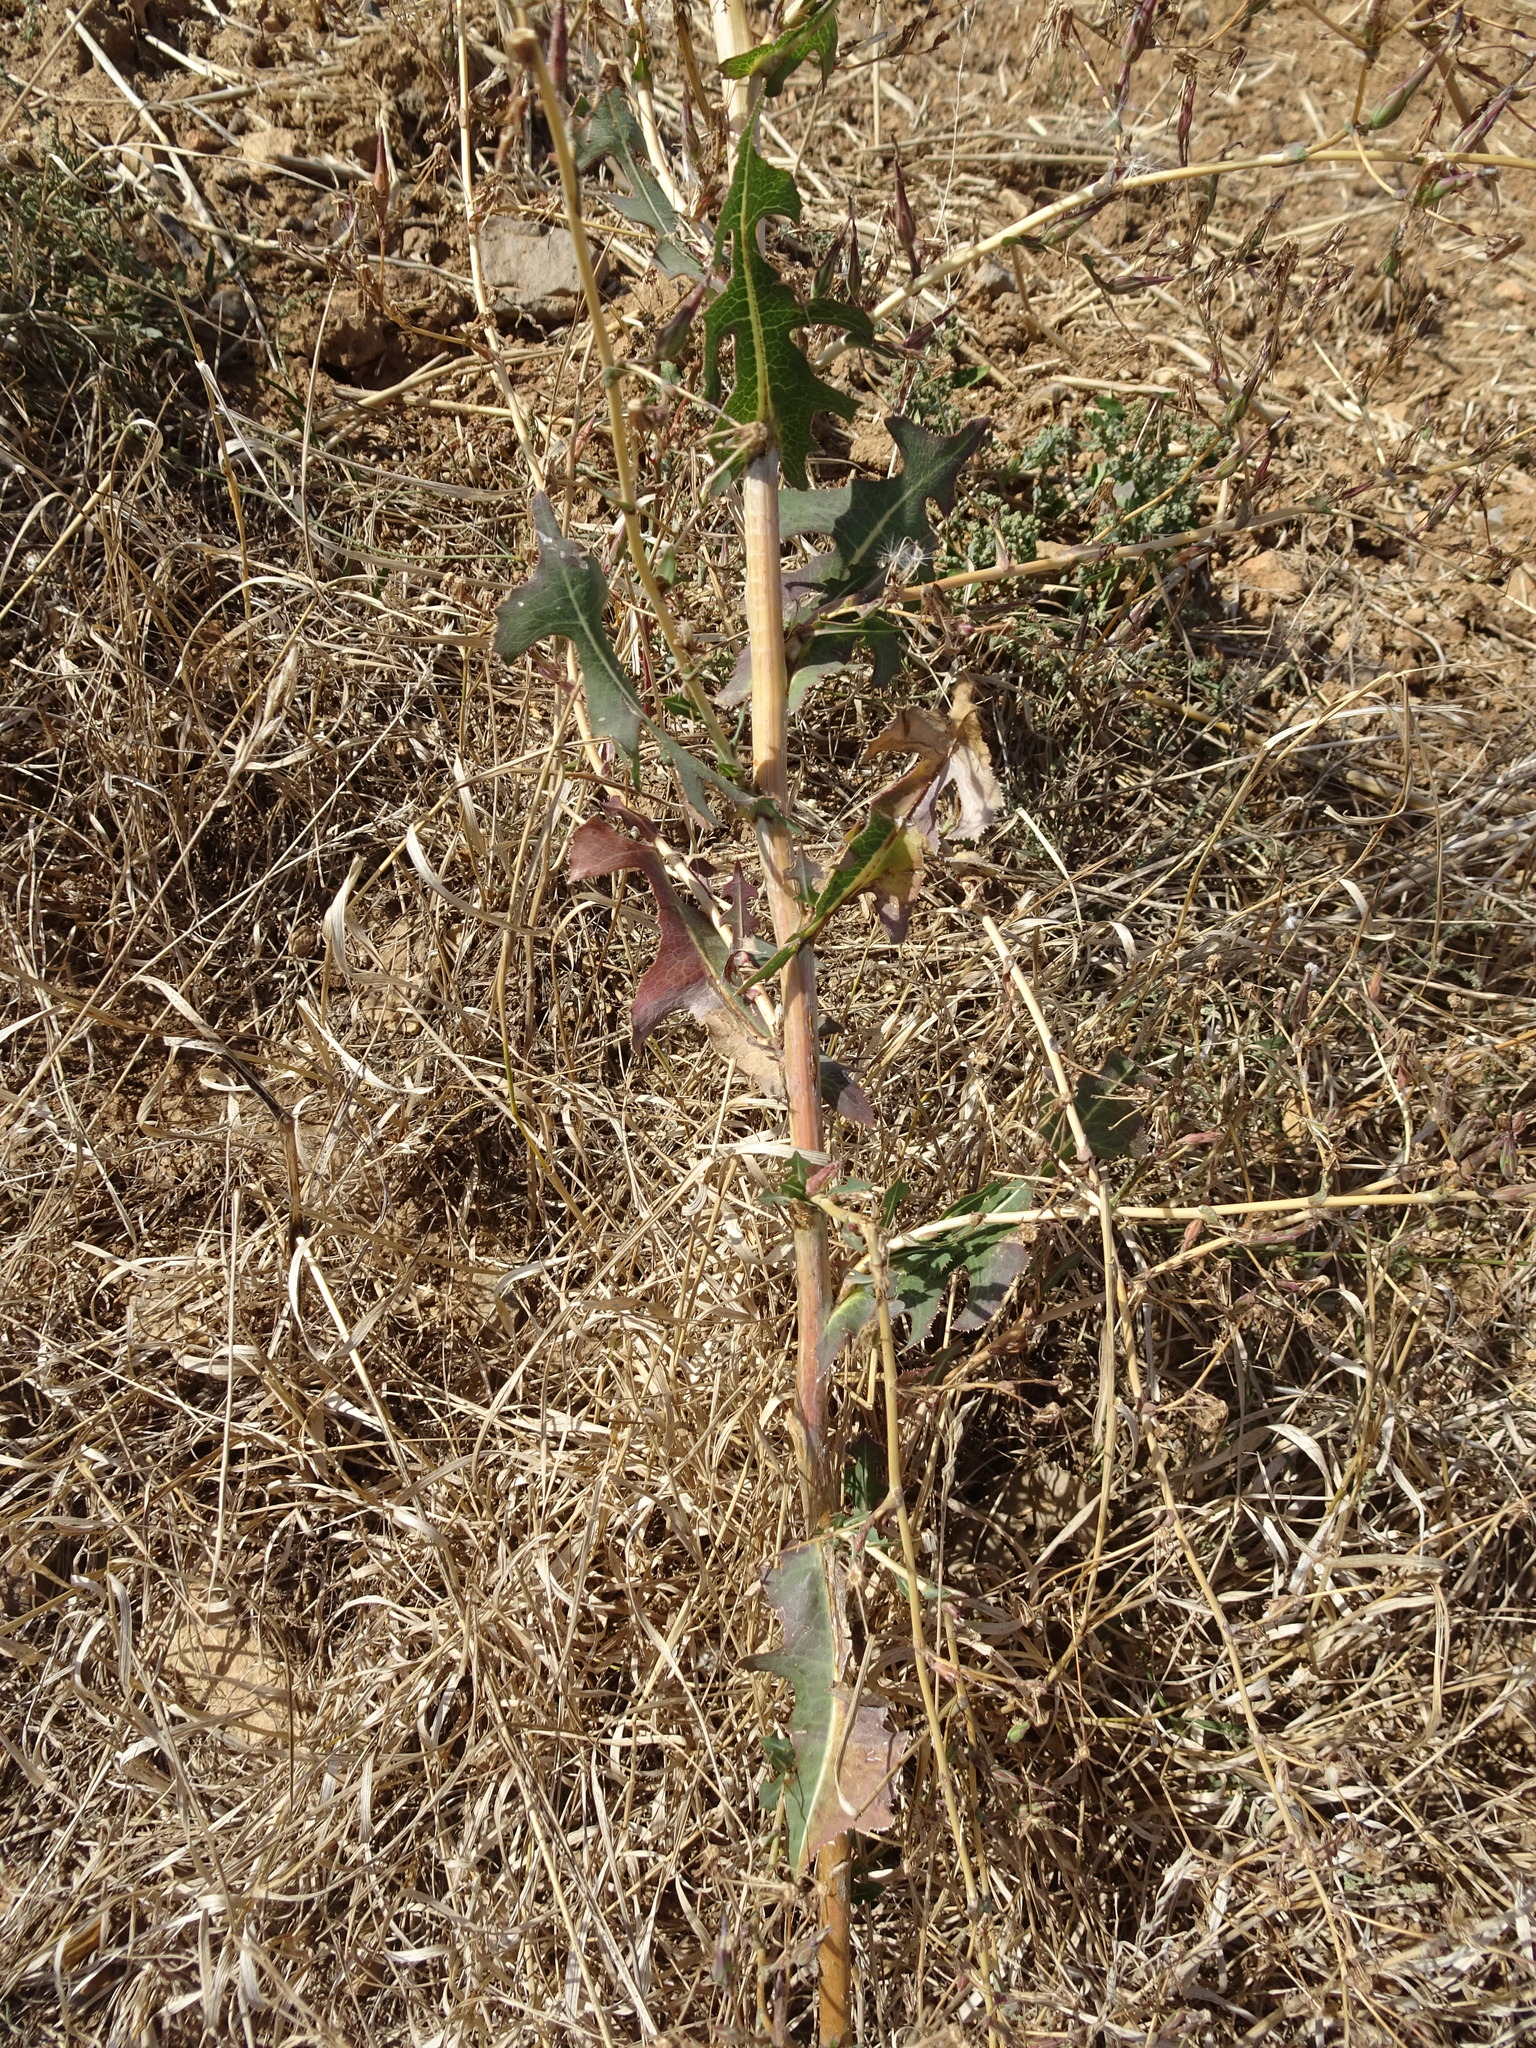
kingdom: Plantae
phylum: Tracheophyta
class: Magnoliopsida
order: Asterales
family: Asteraceae
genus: Lactuca
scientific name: Lactuca serriola
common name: Prickly lettuce
